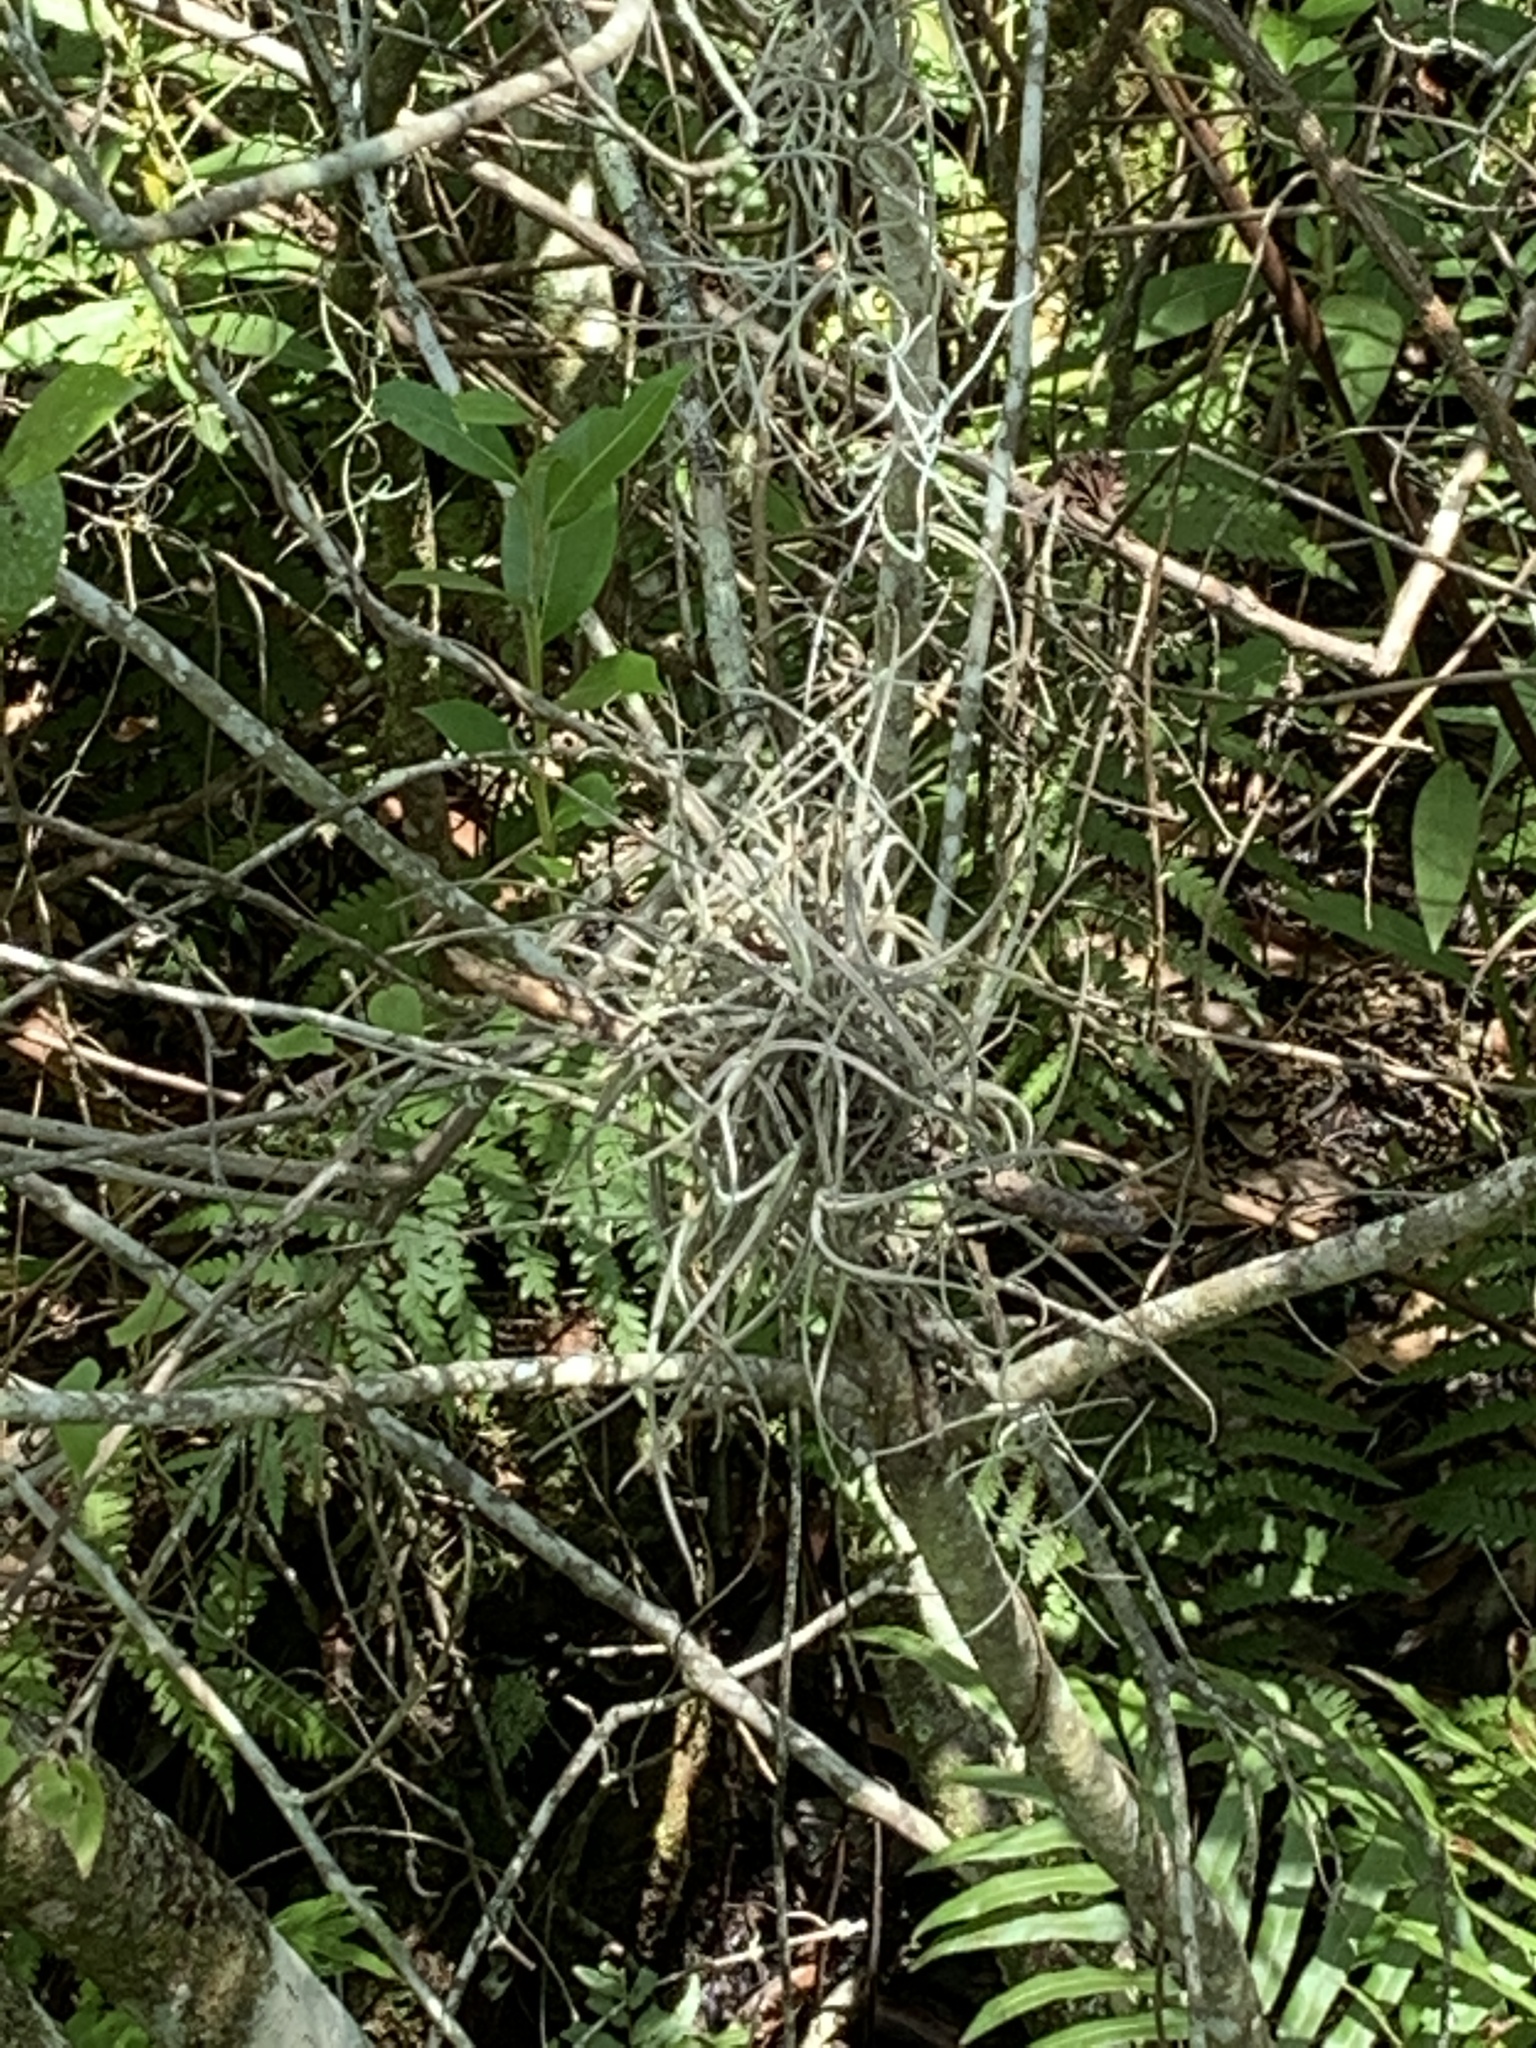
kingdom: Plantae
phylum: Tracheophyta
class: Liliopsida
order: Poales
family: Bromeliaceae
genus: Tillandsia
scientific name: Tillandsia recurvata
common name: Small ballmoss
